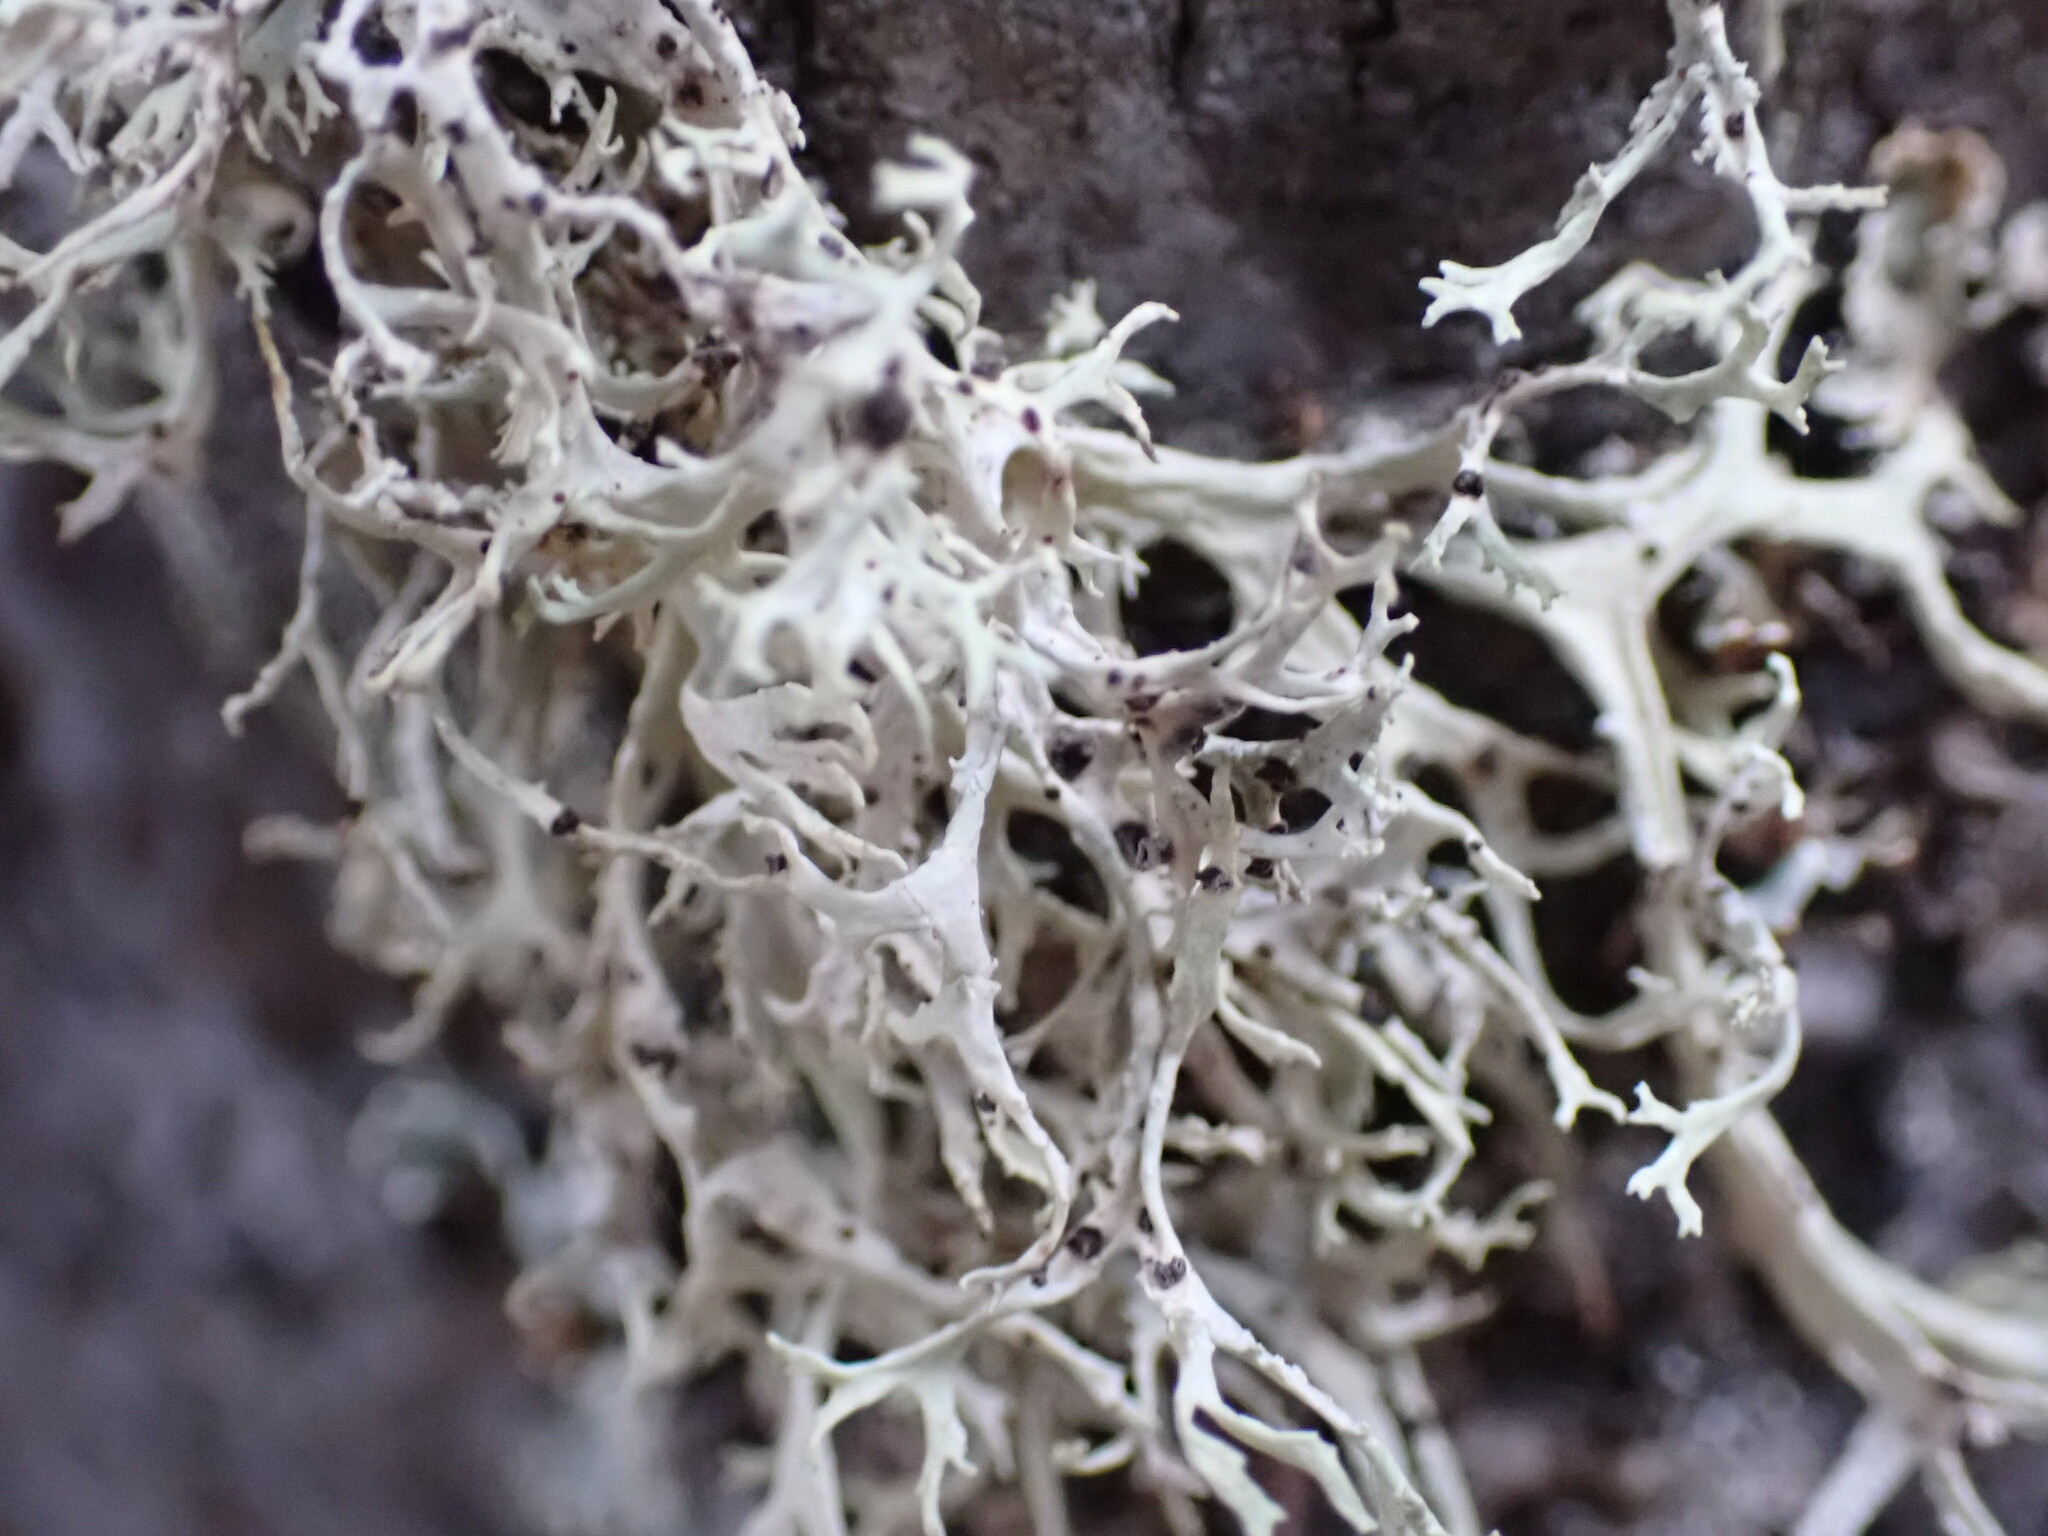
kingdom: Fungi
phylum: Ascomycota
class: Lecanoromycetes
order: Lecanorales
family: Parmeliaceae
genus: Evernia
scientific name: Evernia prunastri
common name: Oak moss
